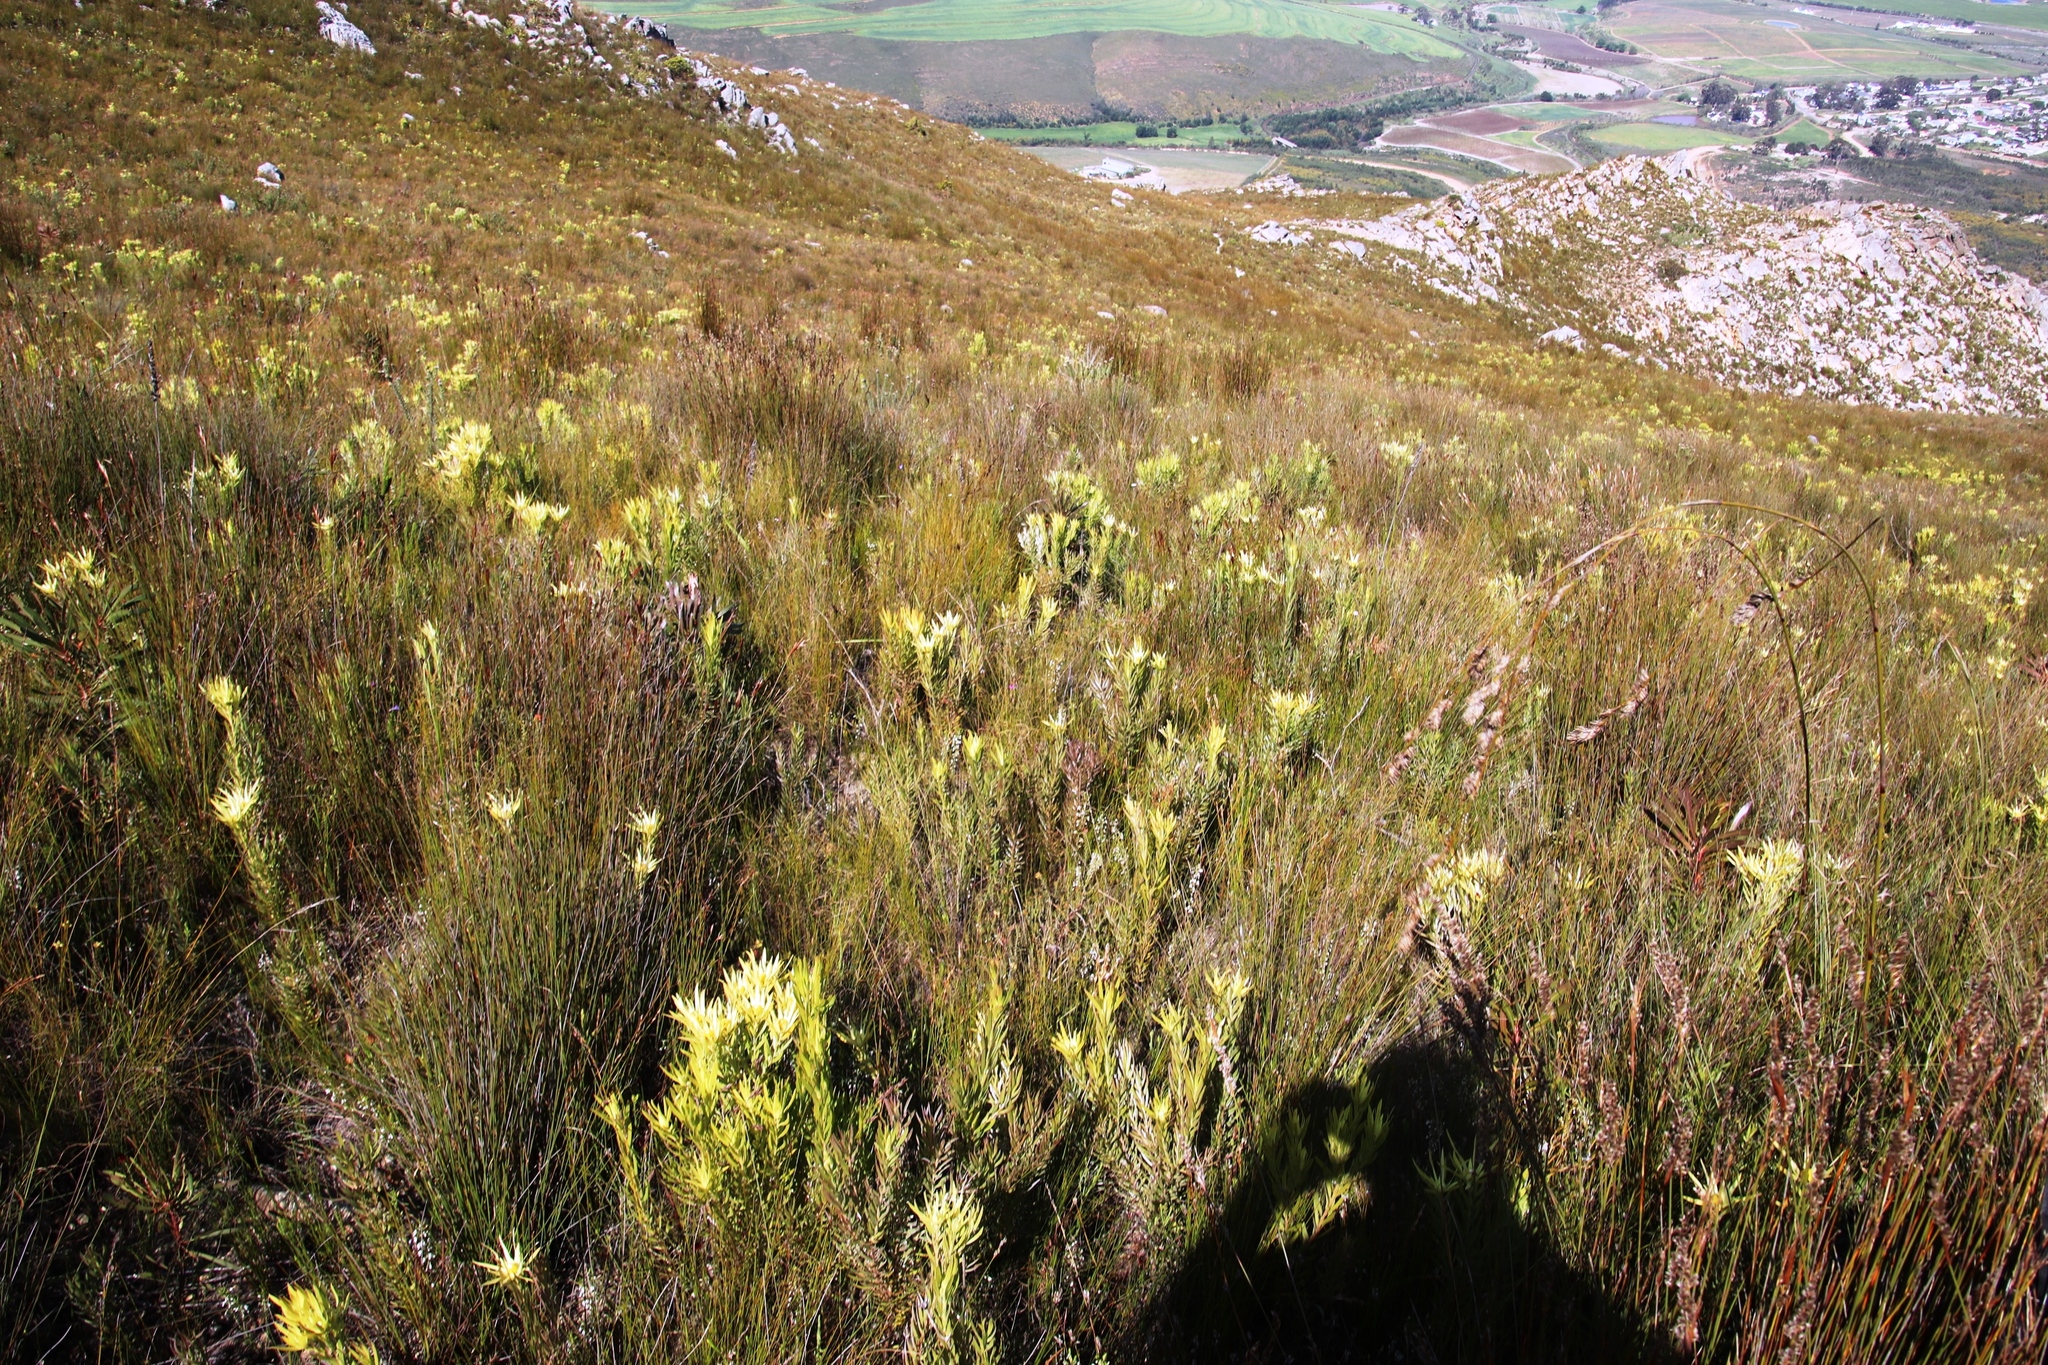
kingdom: Plantae
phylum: Tracheophyta
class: Magnoliopsida
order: Proteales
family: Proteaceae
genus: Leucadendron
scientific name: Leucadendron xanthoconus
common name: Sickle-leaf conebush
